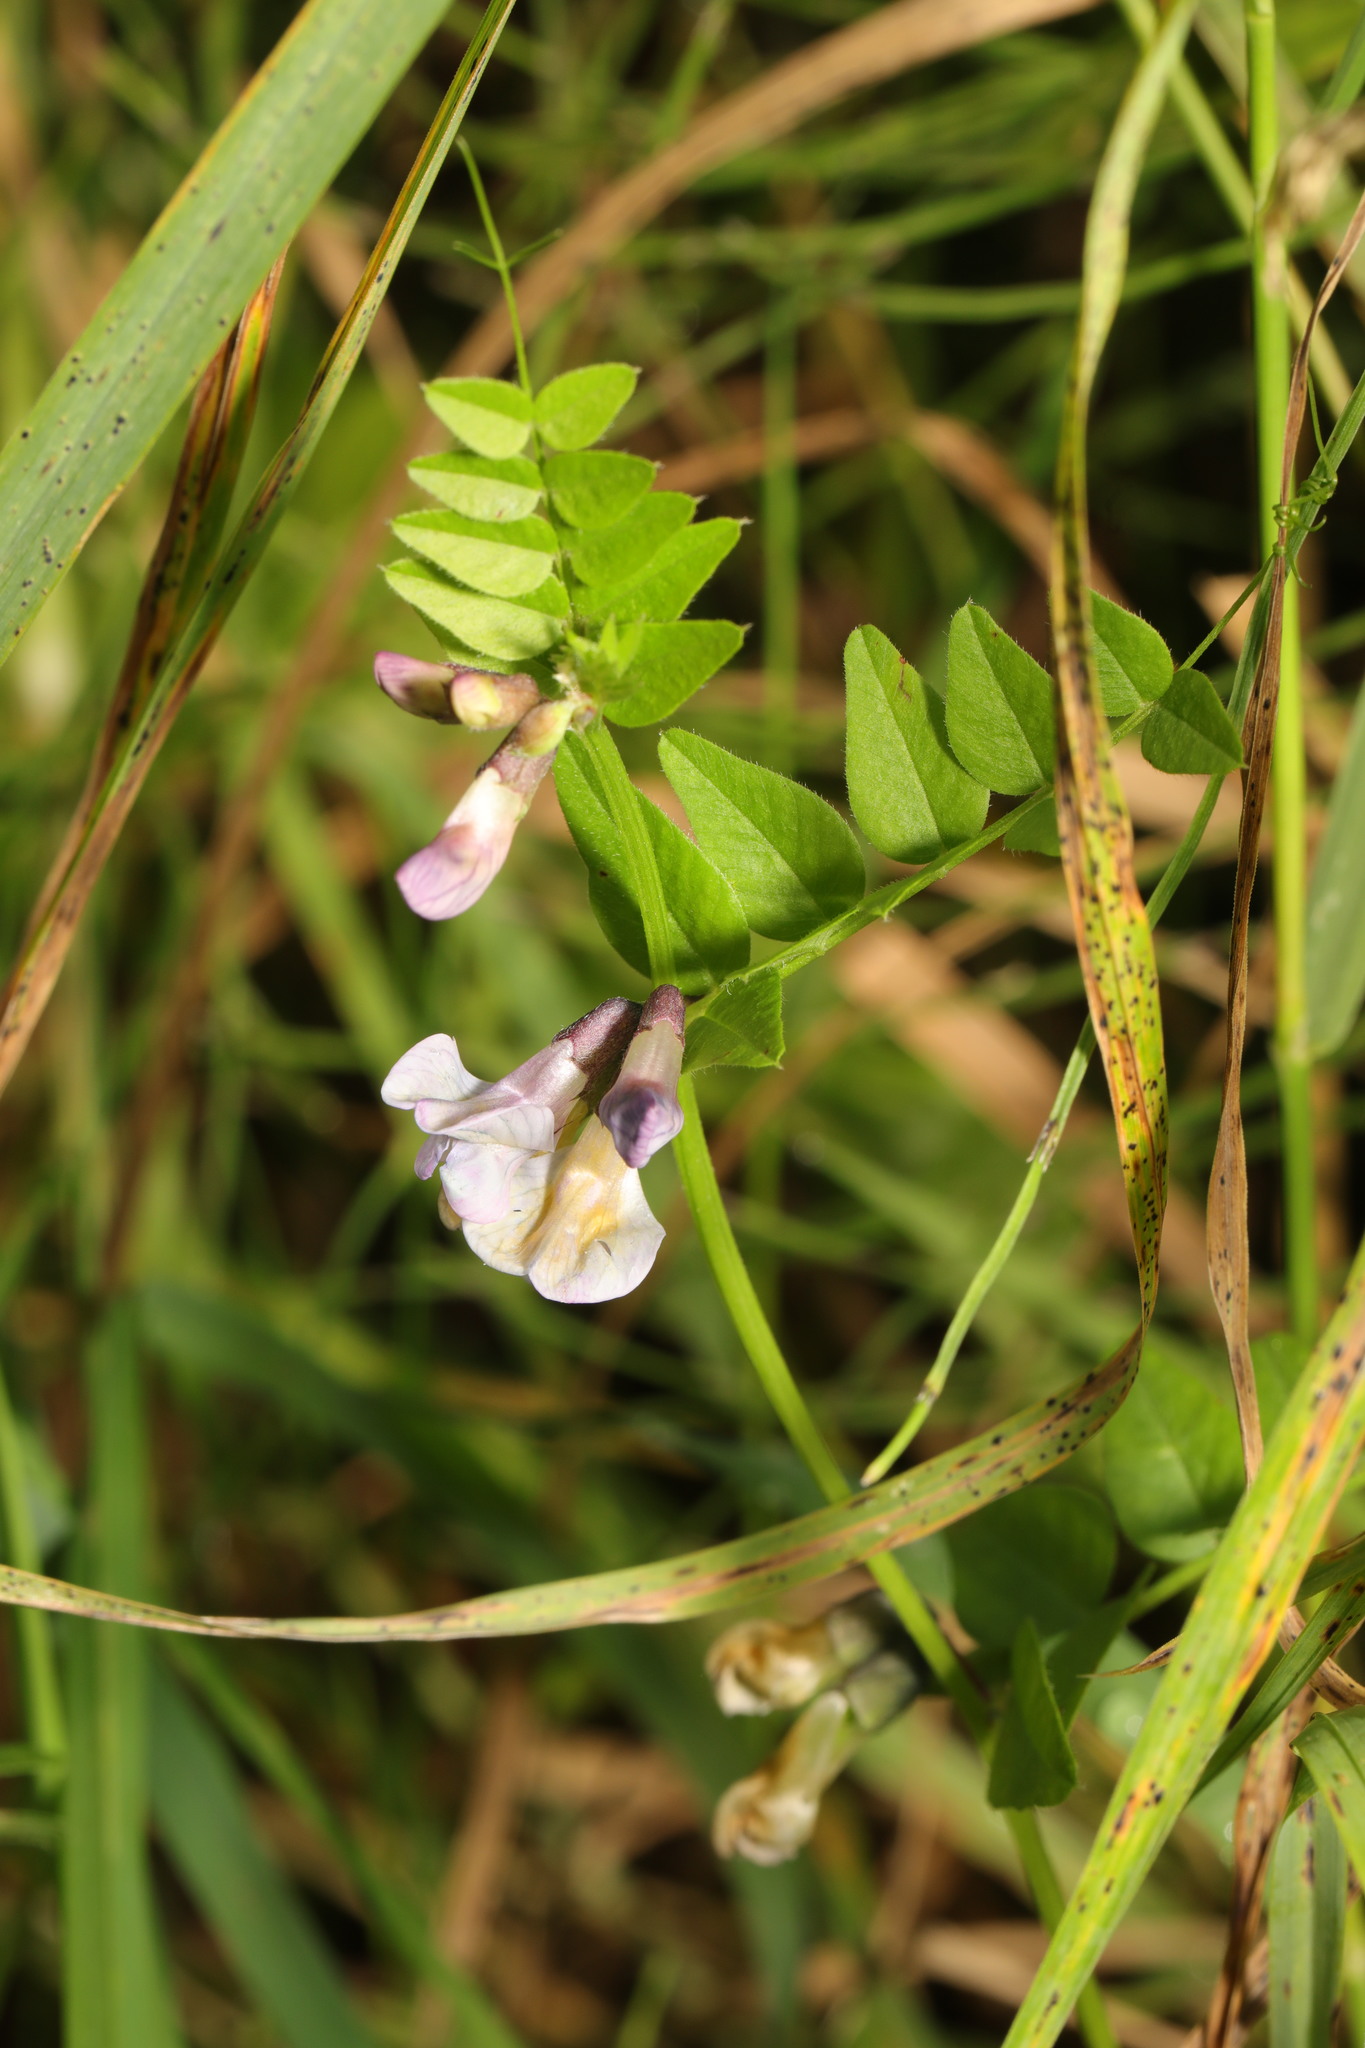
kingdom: Plantae
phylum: Tracheophyta
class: Magnoliopsida
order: Fabales
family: Fabaceae
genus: Vicia
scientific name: Vicia sepium
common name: Bush vetch
